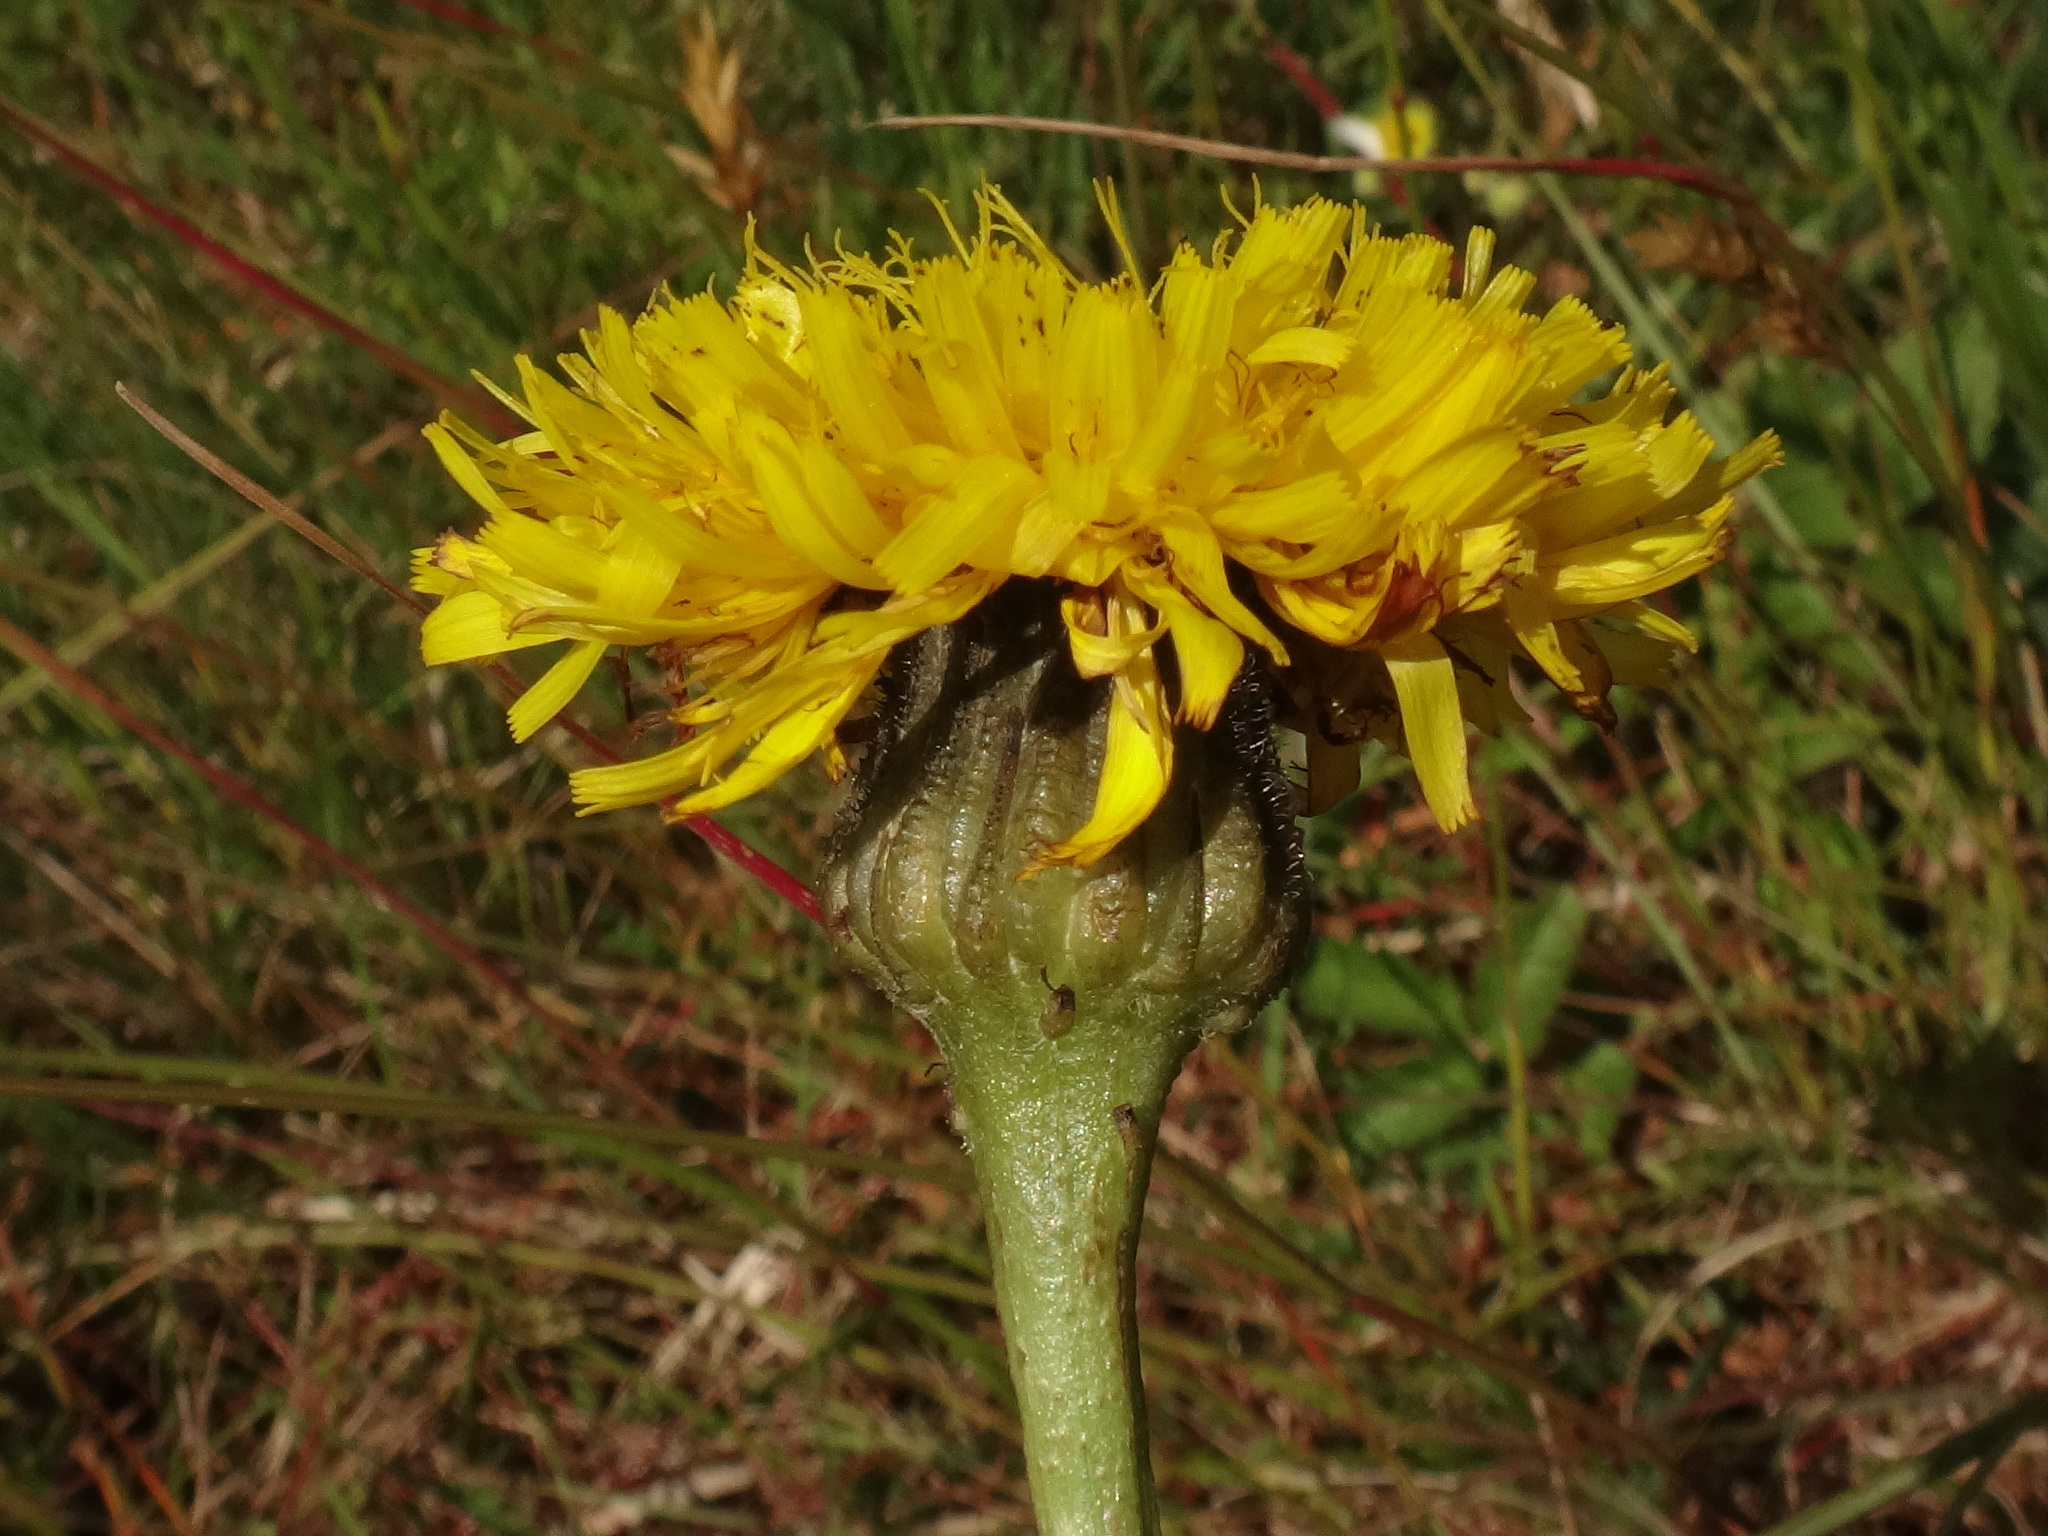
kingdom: Plantae
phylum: Tracheophyta
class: Magnoliopsida
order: Asterales
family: Asteraceae
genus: Trommsdorffia
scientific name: Trommsdorffia maculata
